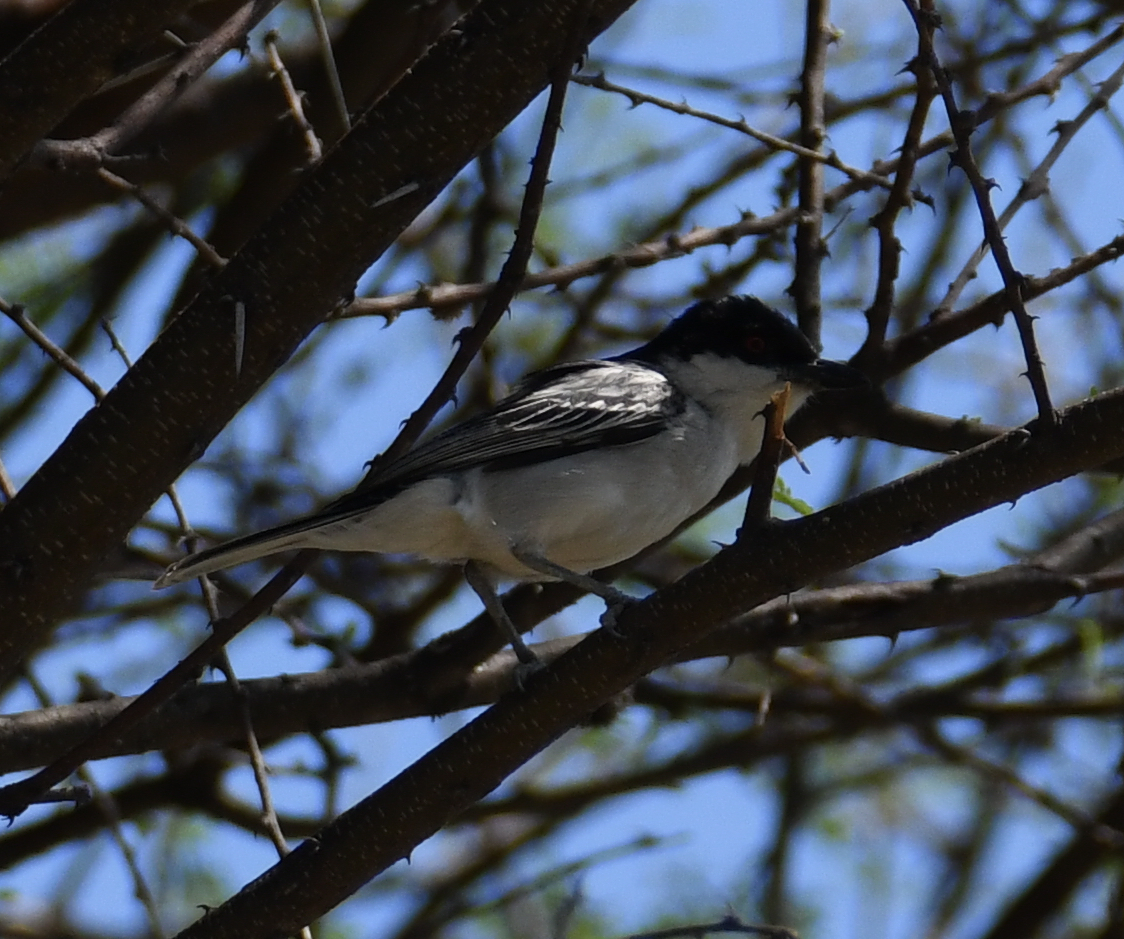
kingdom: Animalia
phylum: Chordata
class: Aves
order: Passeriformes
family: Malaconotidae
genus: Dryoscopus
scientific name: Dryoscopus cubla
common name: Black-backed puffback
